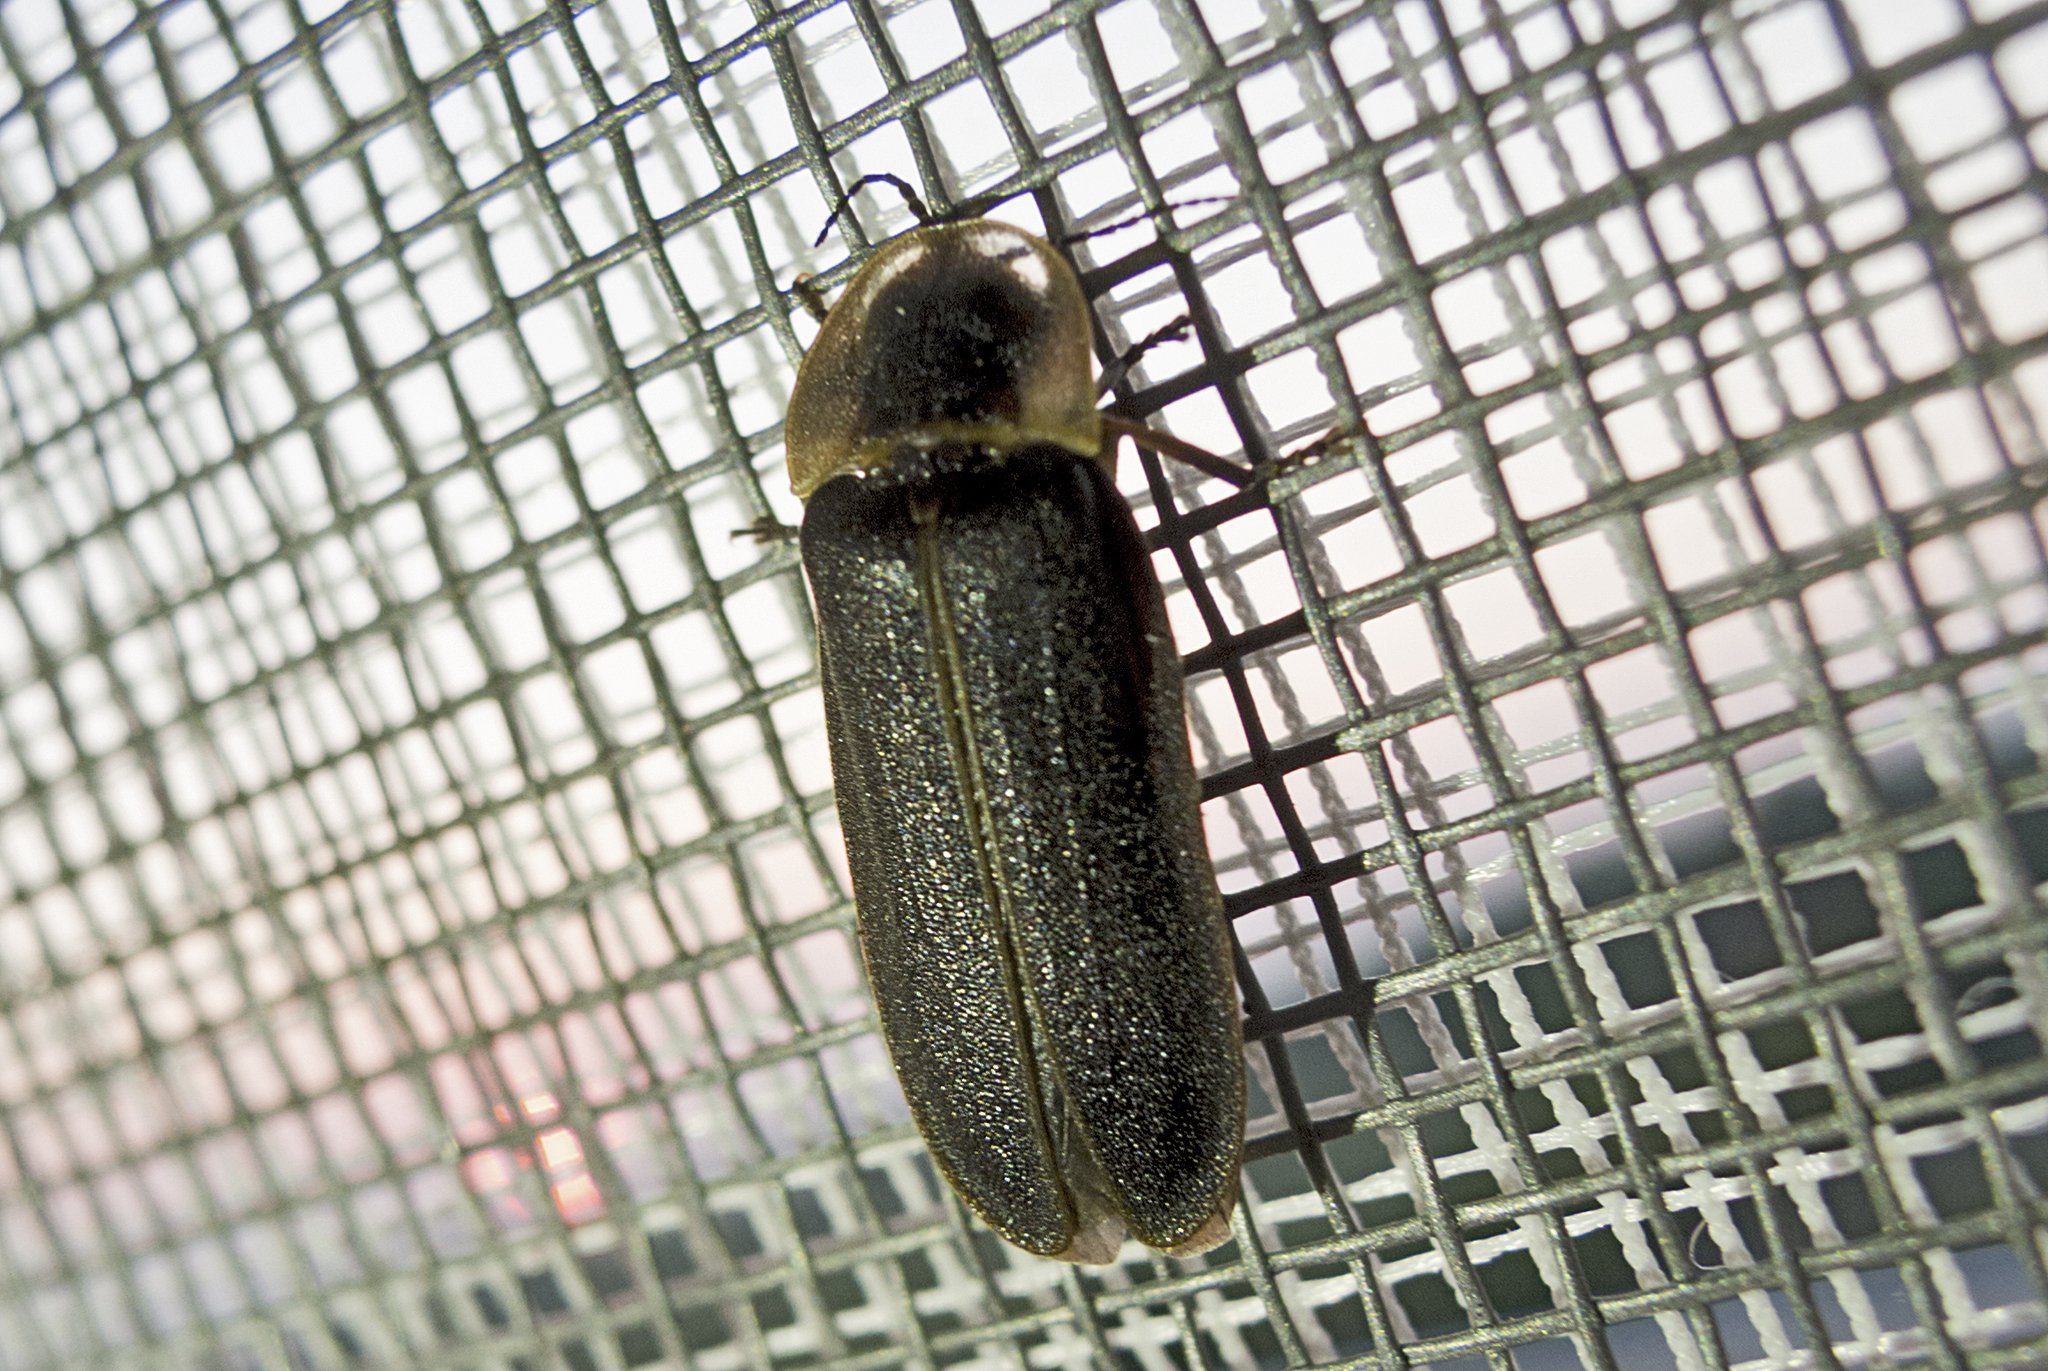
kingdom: Animalia
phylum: Arthropoda
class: Insecta
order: Coleoptera
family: Lampyridae
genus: Lampyris
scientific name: Lampyris zenkeri
